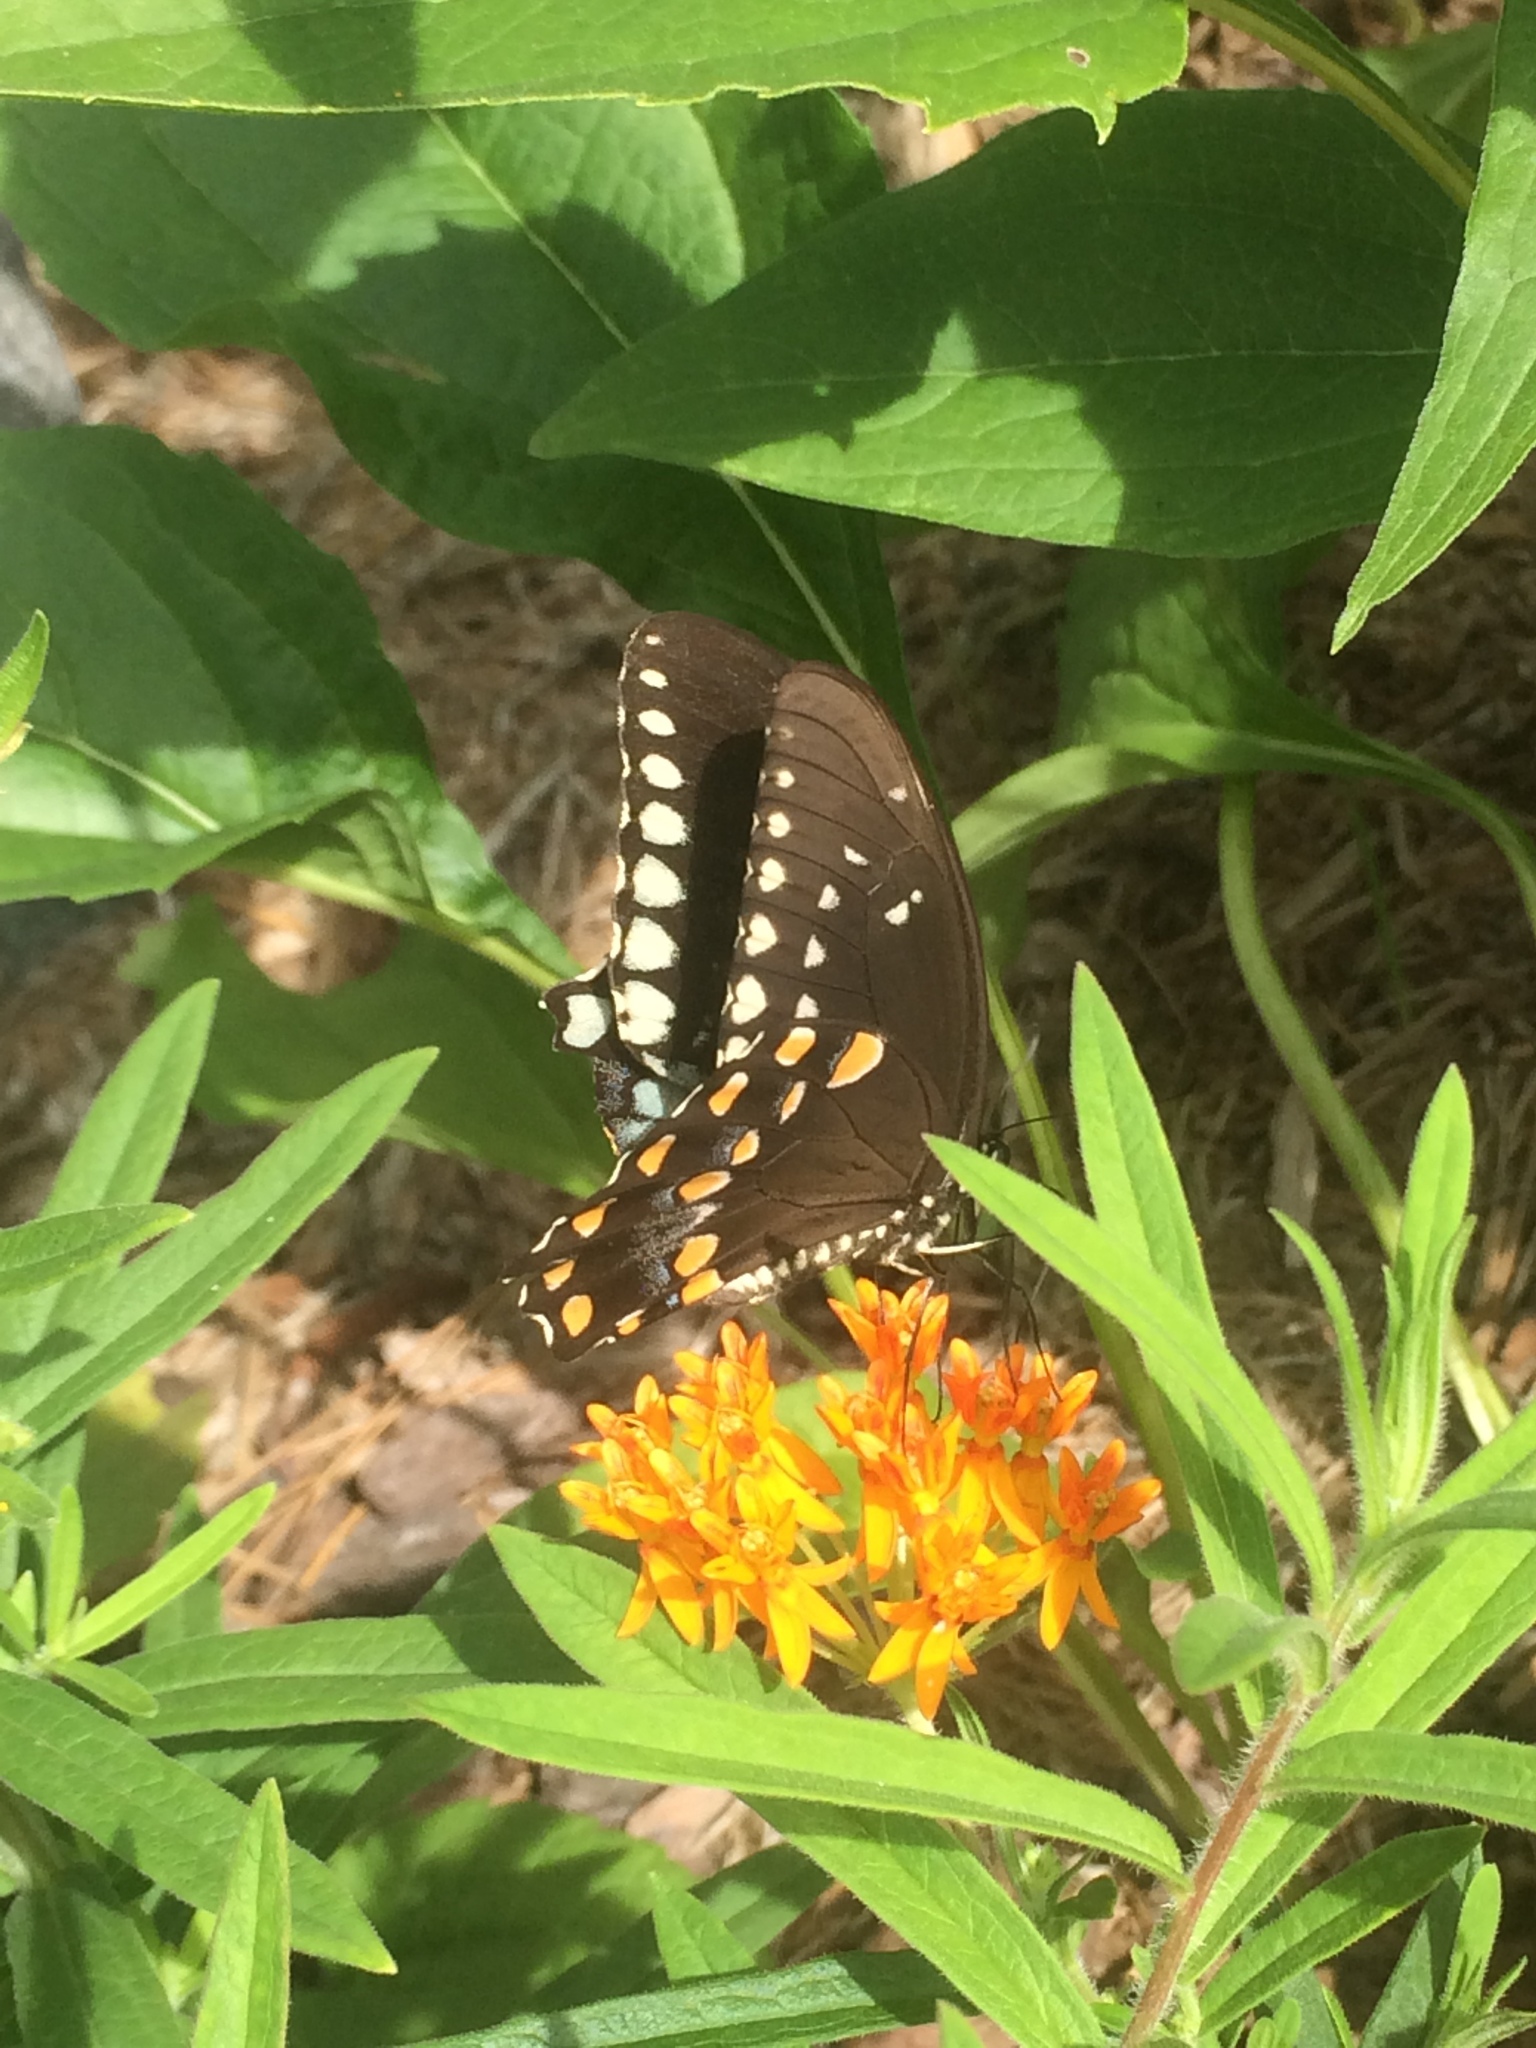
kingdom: Animalia
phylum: Arthropoda
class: Insecta
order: Lepidoptera
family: Papilionidae
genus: Papilio
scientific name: Papilio troilus
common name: Spicebush swallowtail
